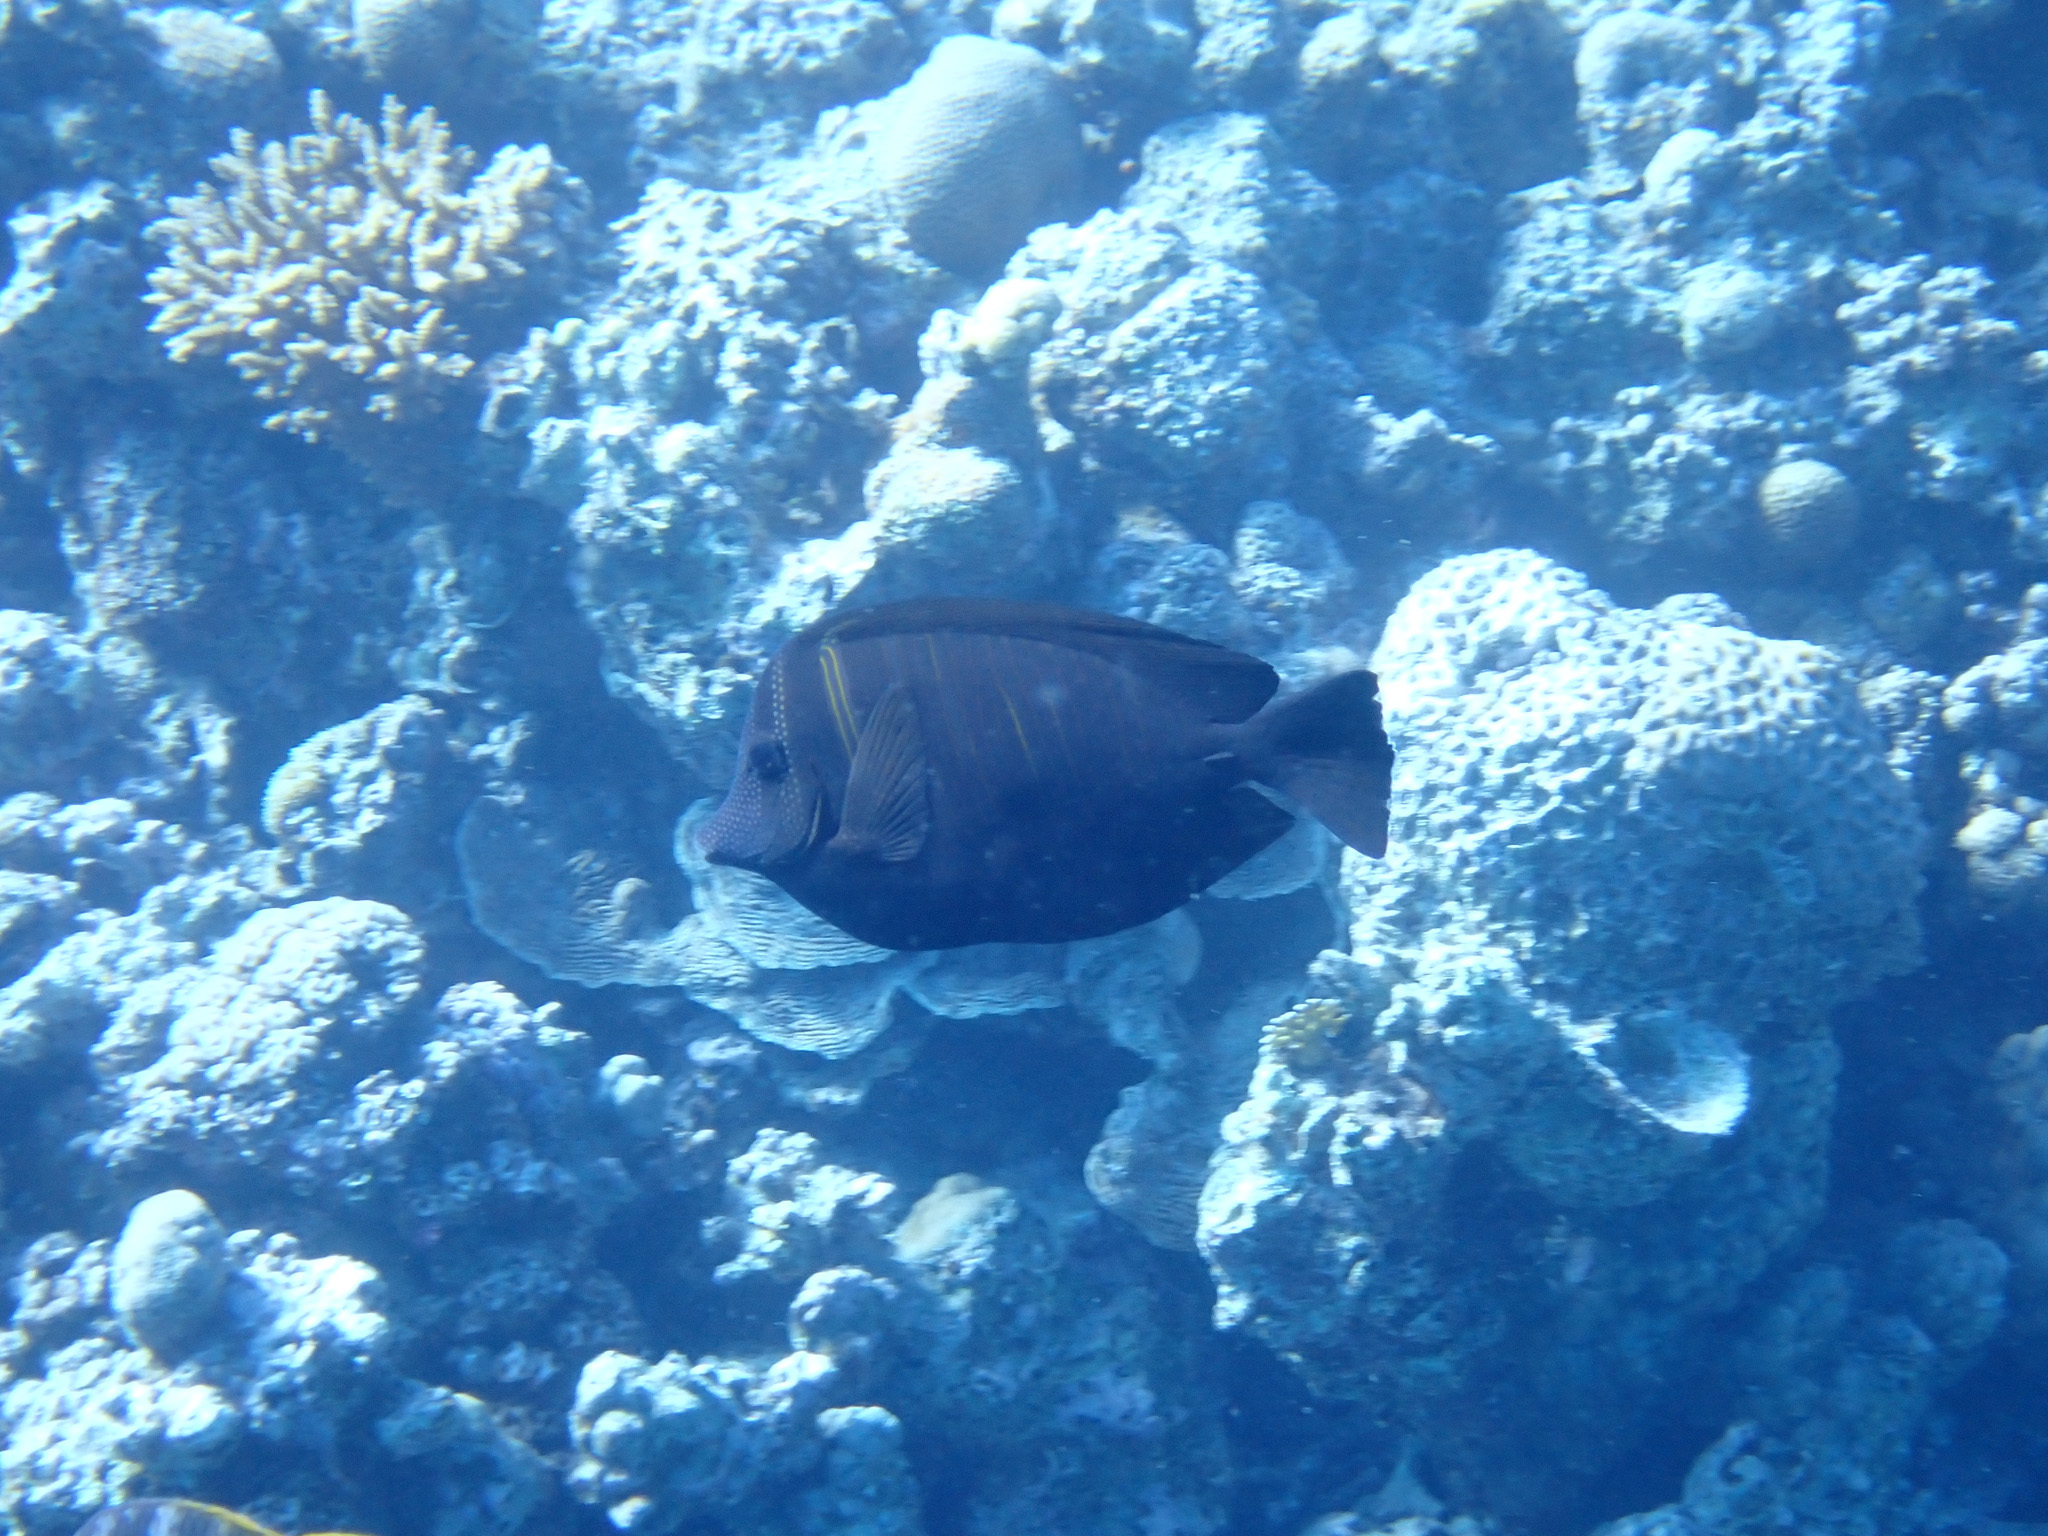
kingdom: Animalia
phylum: Chordata
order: Perciformes
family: Acanthuridae
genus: Zebrasoma
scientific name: Zebrasoma desjardinii
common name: Desjardin's sailfin tang
